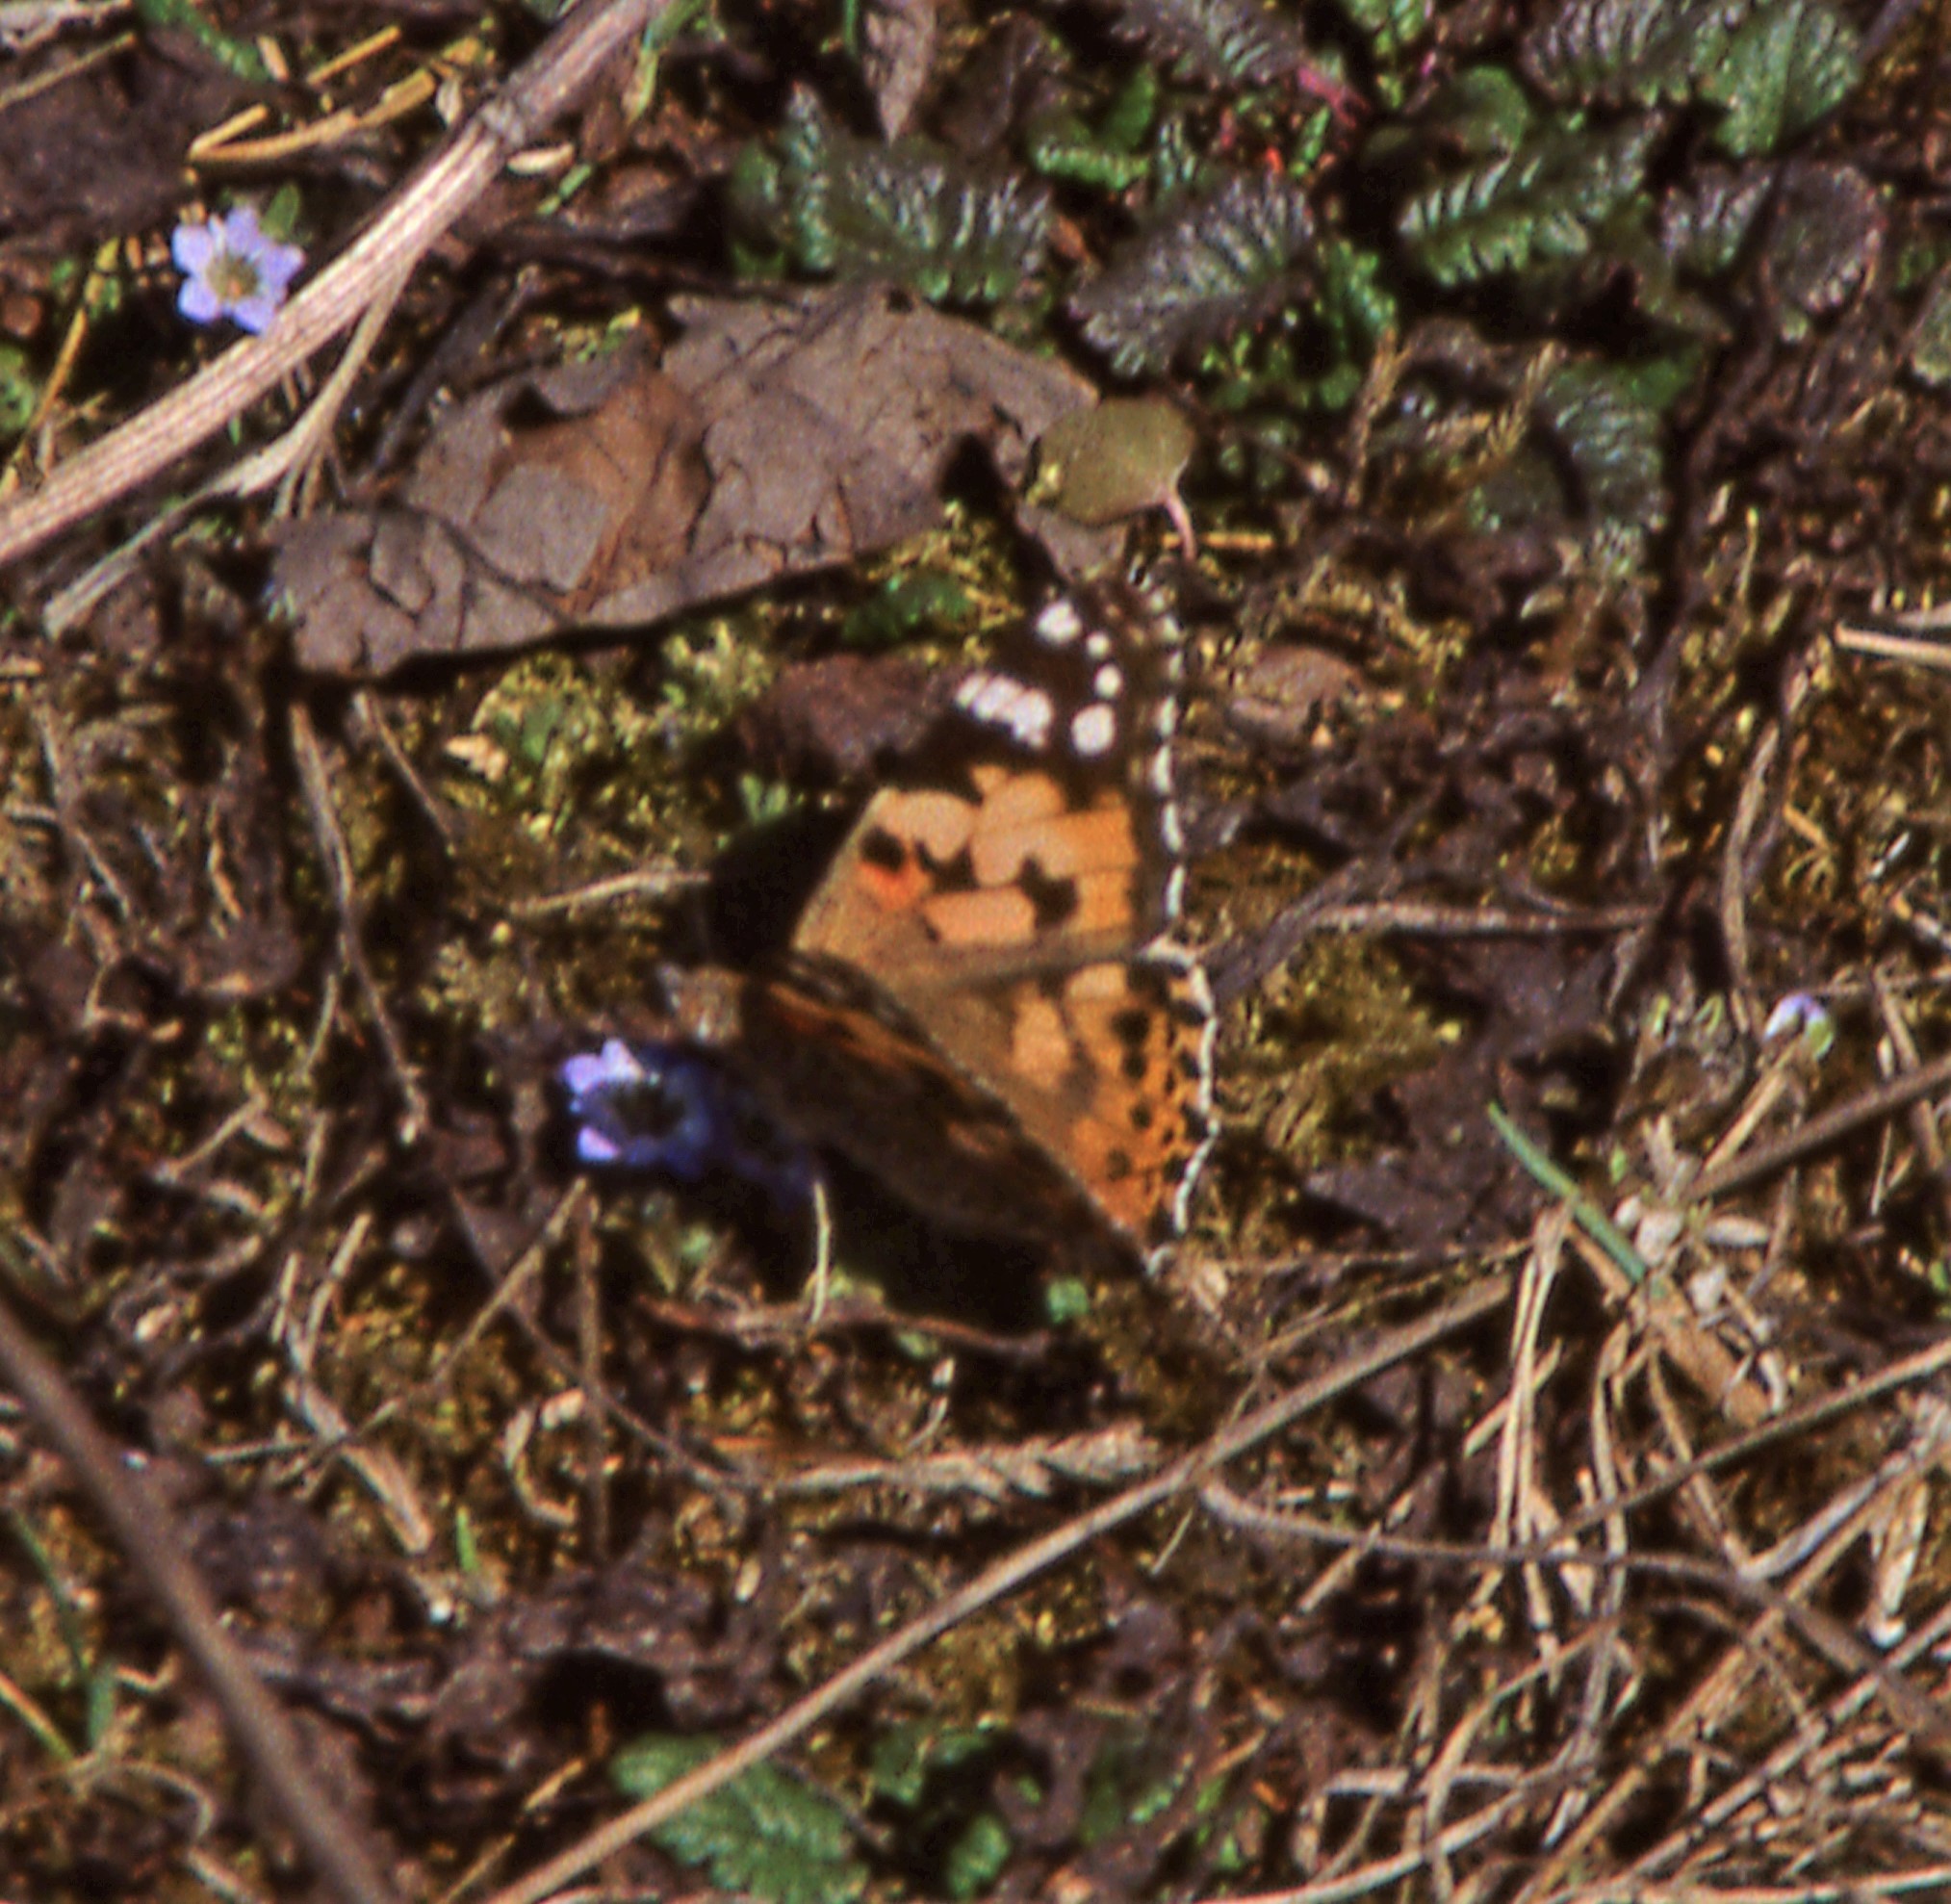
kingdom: Animalia
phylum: Arthropoda
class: Insecta
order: Lepidoptera
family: Nymphalidae
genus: Vanessa
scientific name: Vanessa cardui
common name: Painted lady
